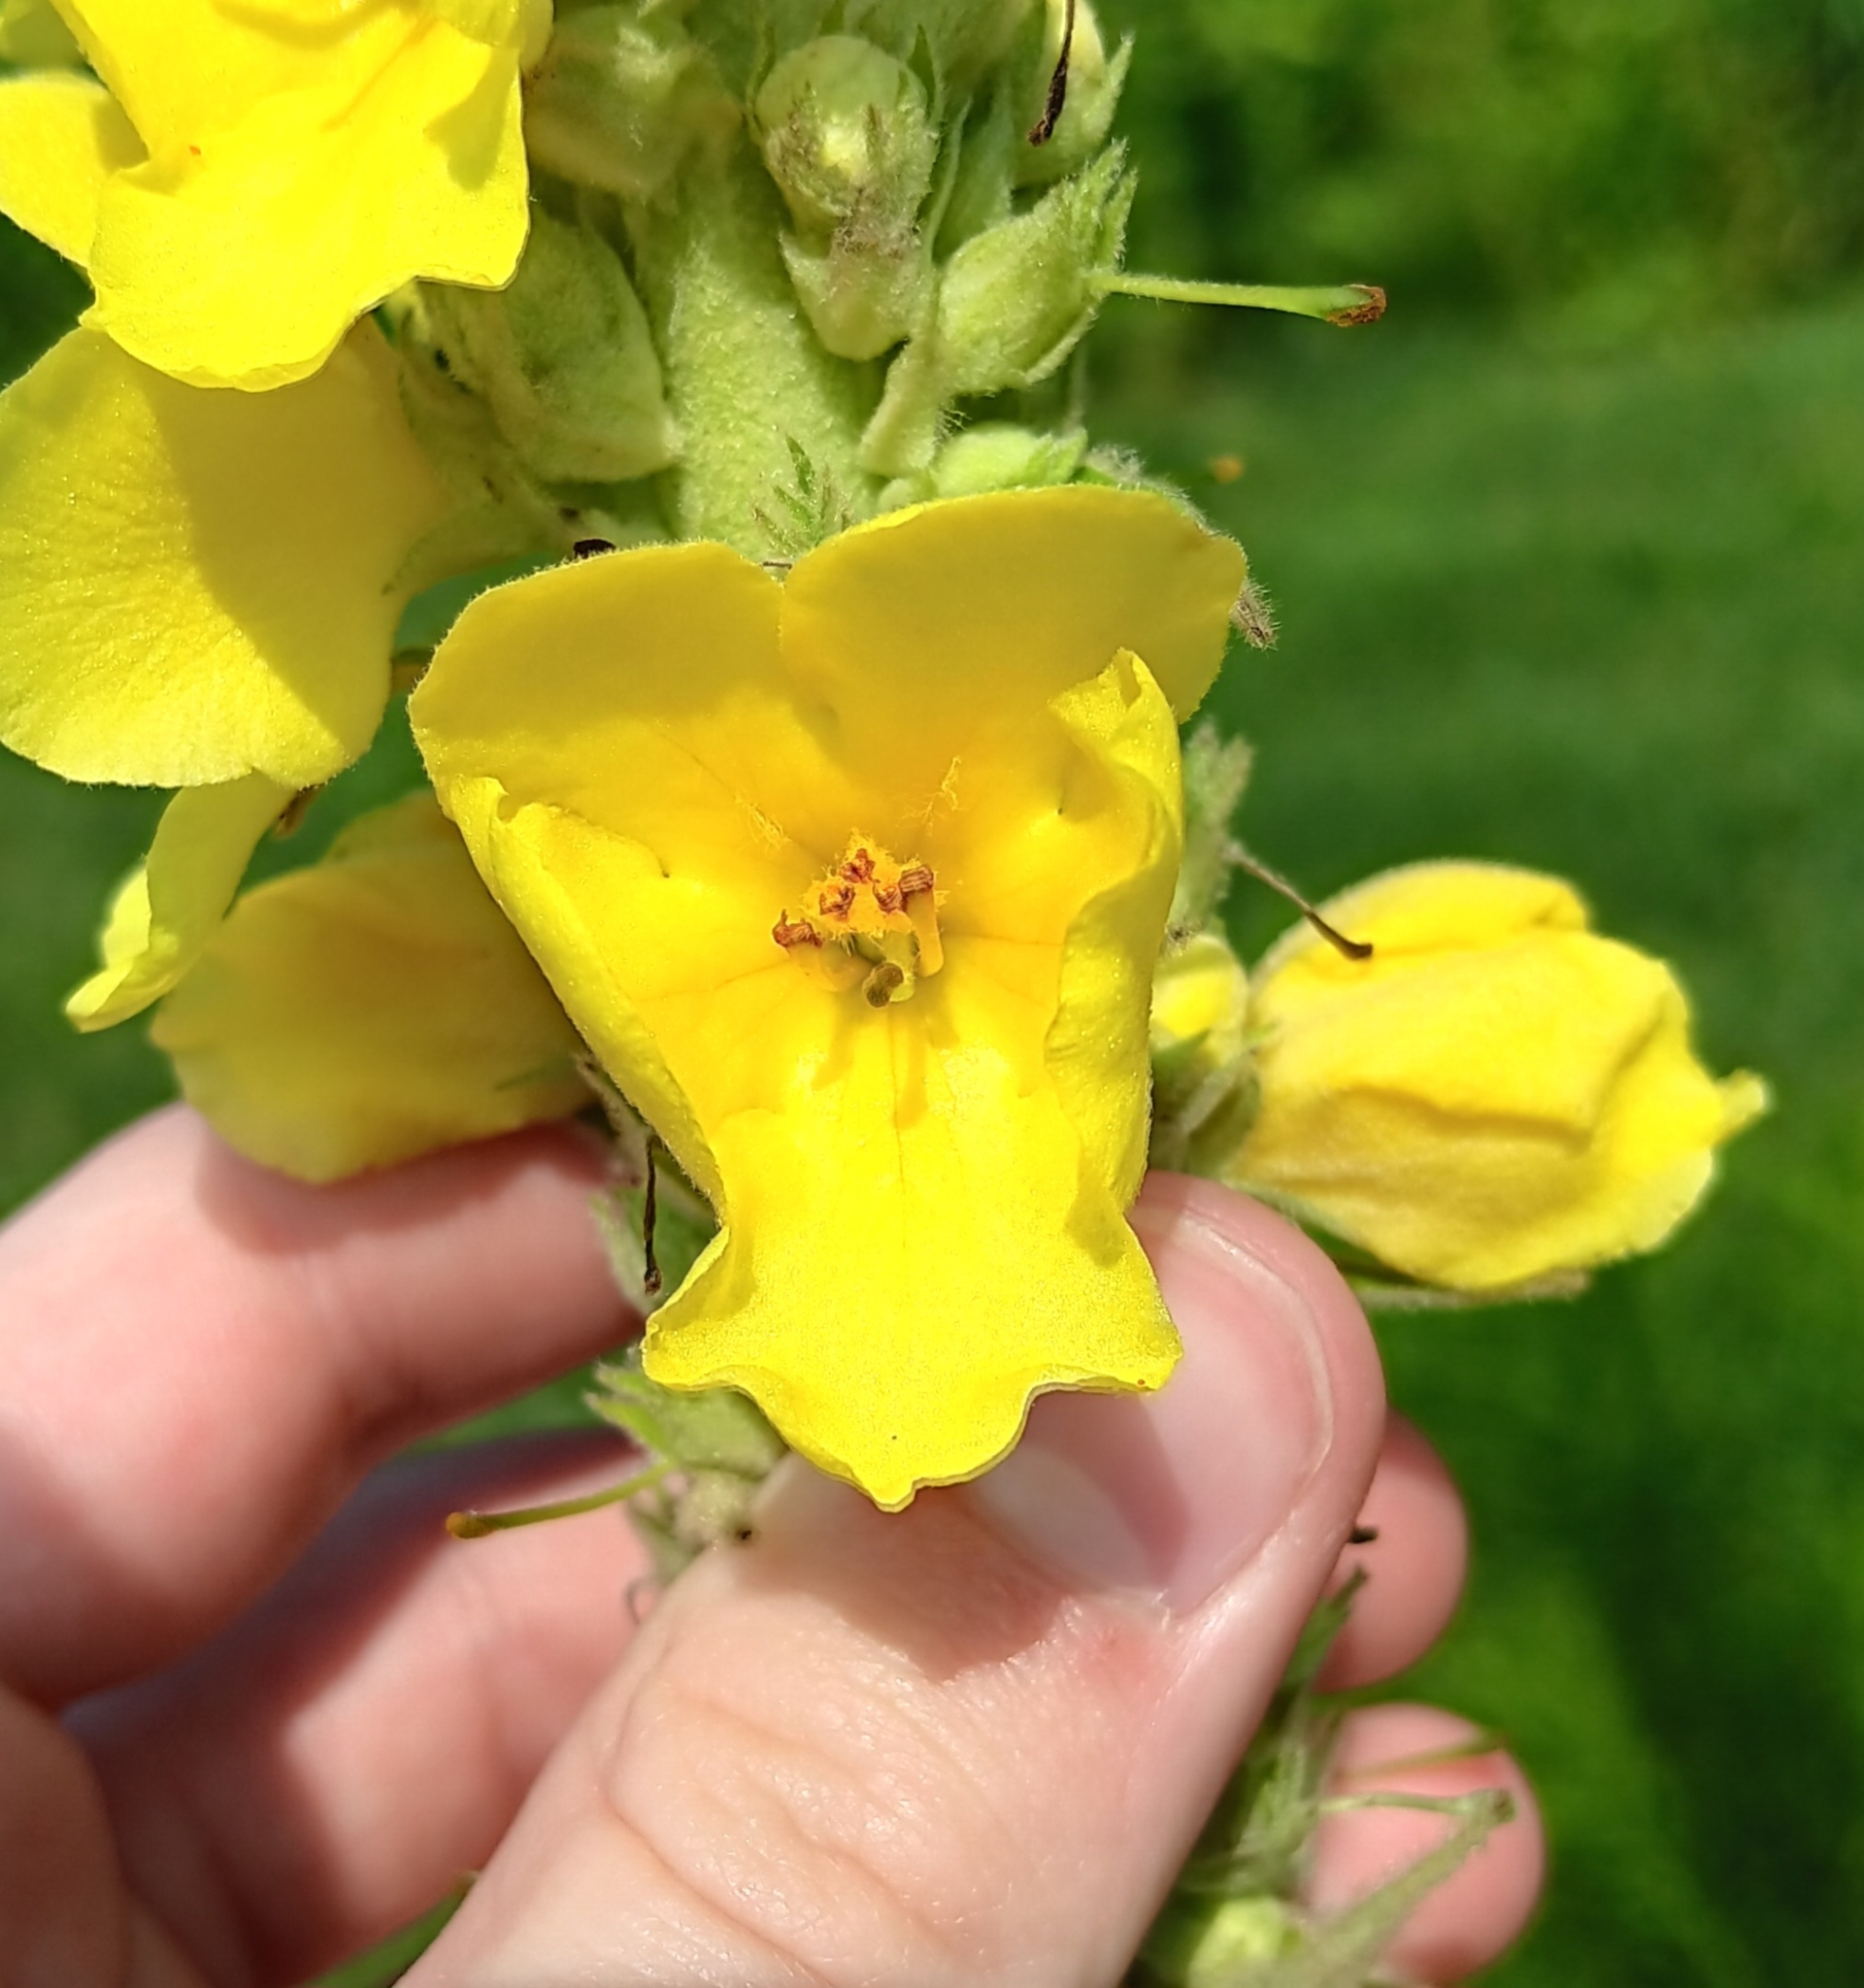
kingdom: Plantae
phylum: Tracheophyta
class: Magnoliopsida
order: Lamiales
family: Scrophulariaceae
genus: Verbascum
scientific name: Verbascum densiflorum
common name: Dense-flowered mullein
